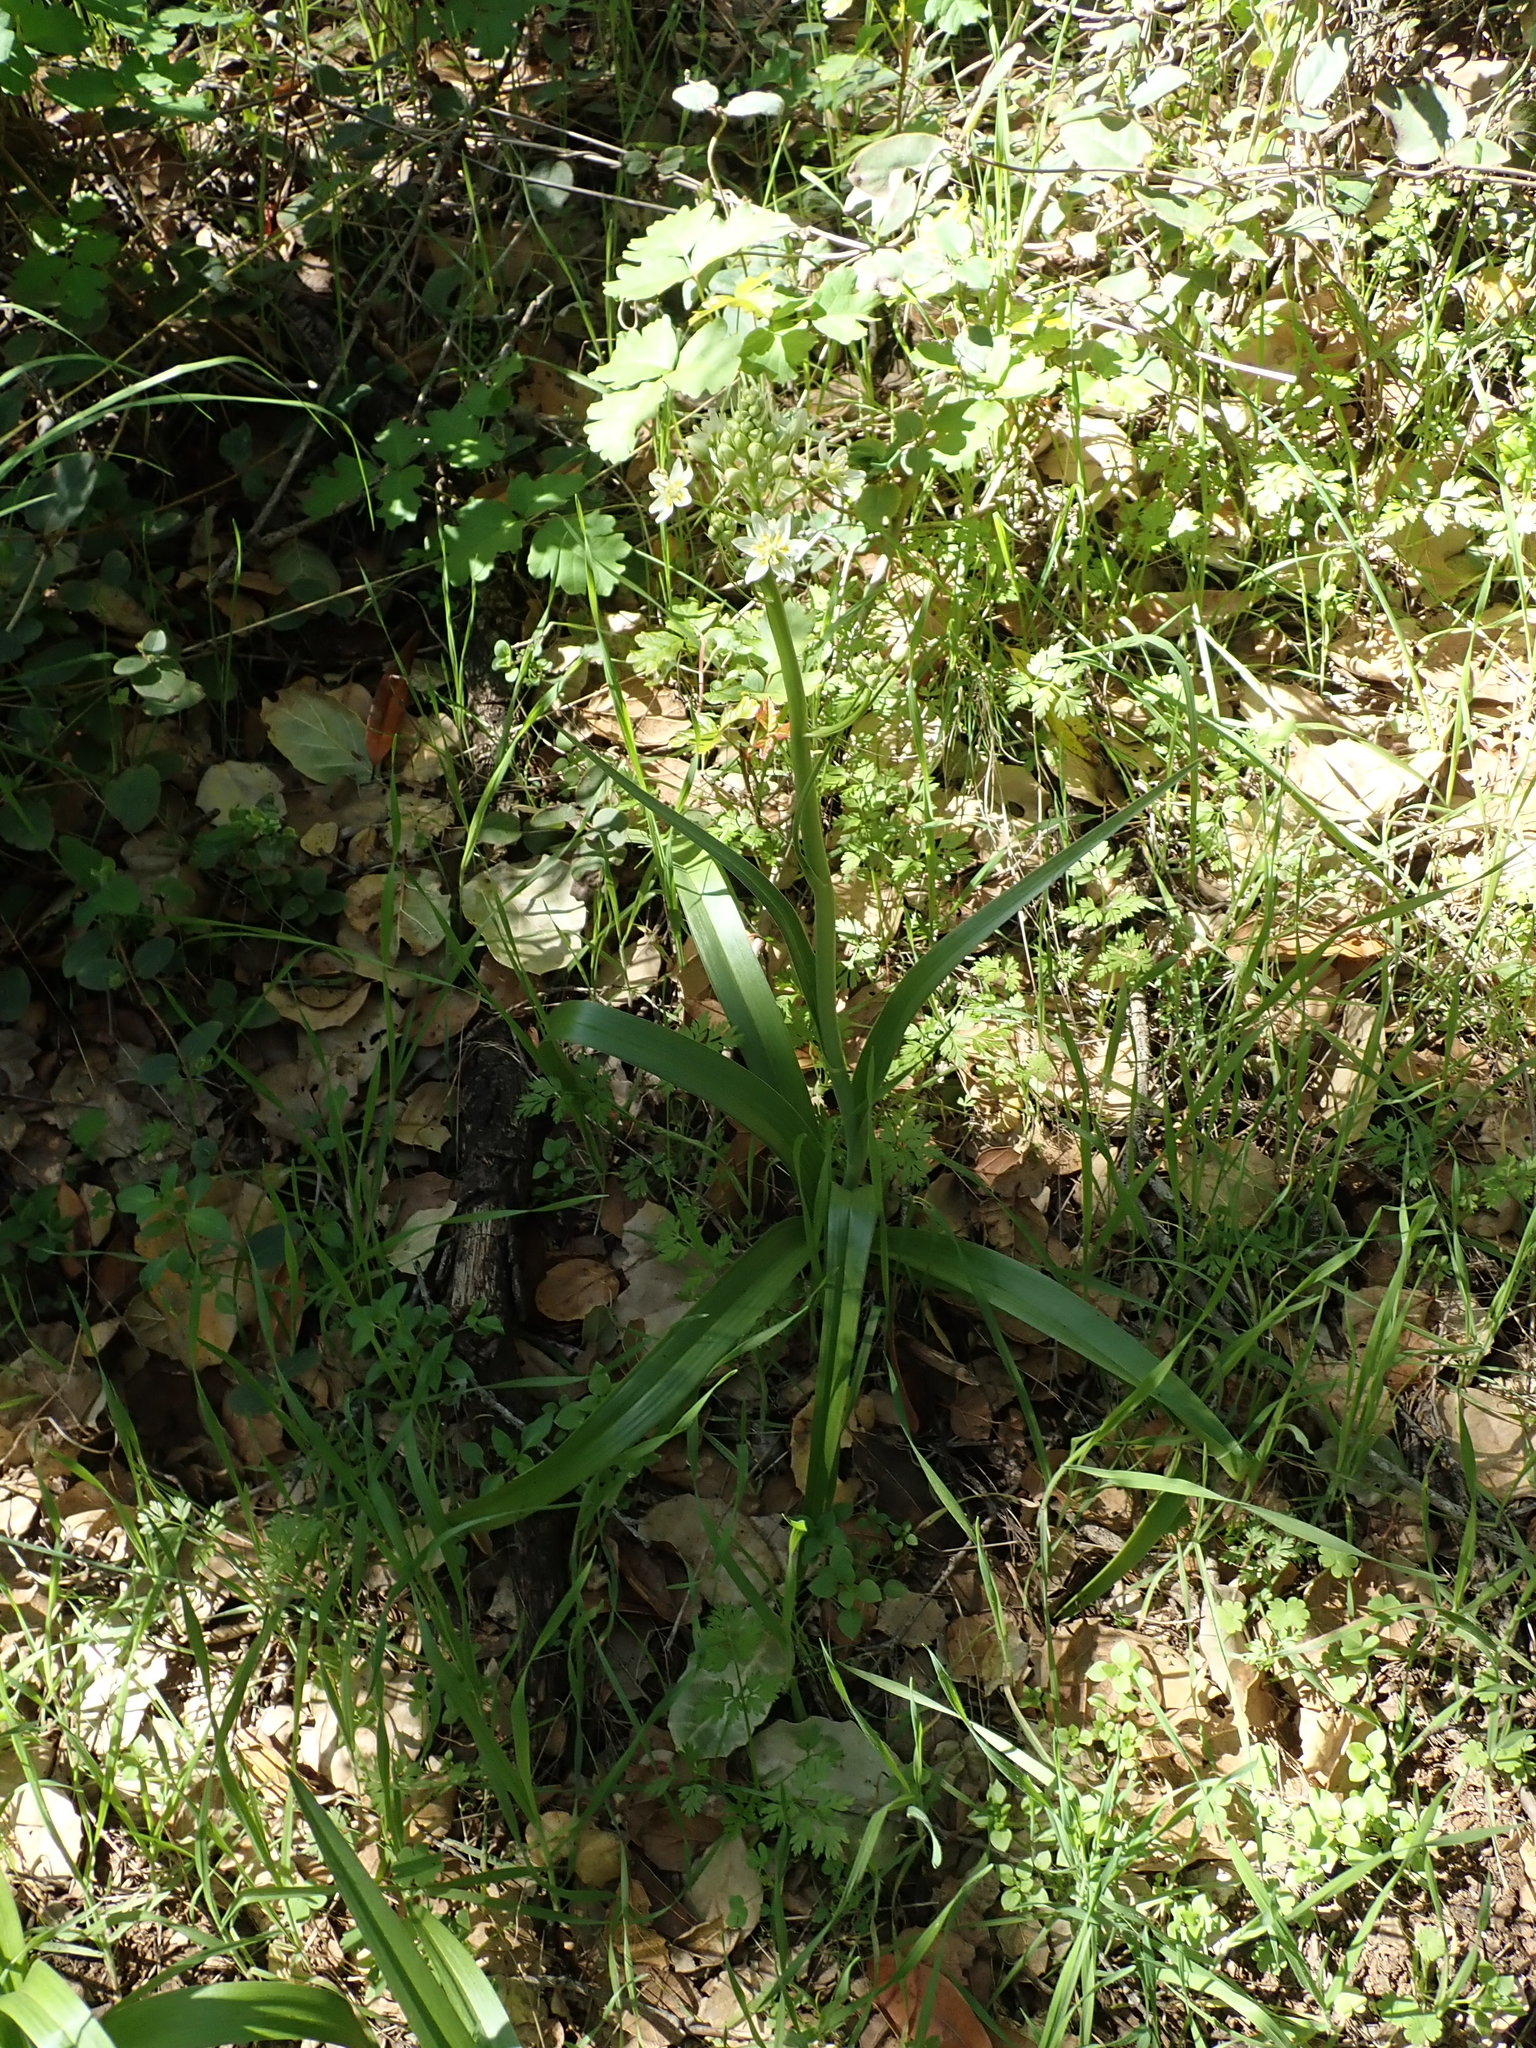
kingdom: Plantae
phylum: Tracheophyta
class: Liliopsida
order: Liliales
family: Melanthiaceae
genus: Toxicoscordion
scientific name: Toxicoscordion fremontii
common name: Fremont's death camas
